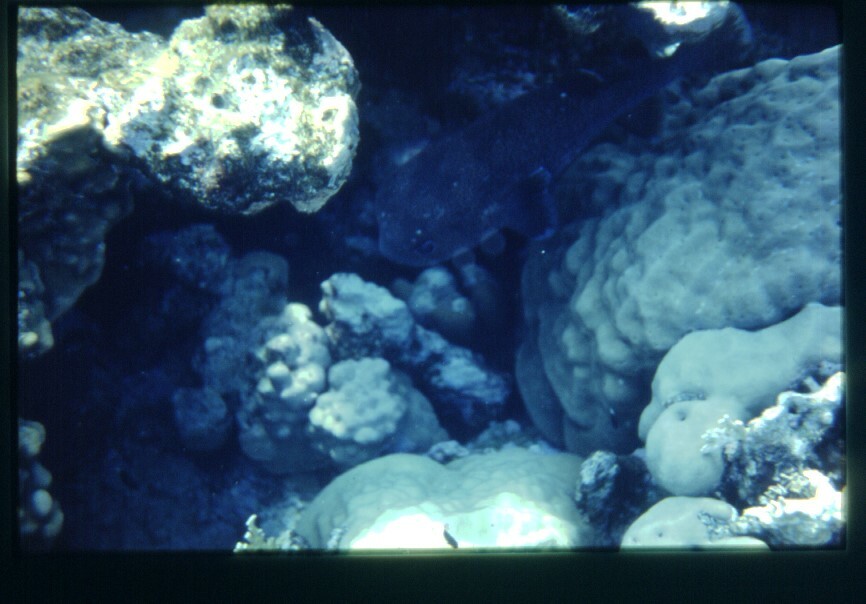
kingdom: Animalia
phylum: Chordata
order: Tetraodontiformes
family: Diodontidae
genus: Diodon
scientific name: Diodon hystrix
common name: Giant porcupinefish
